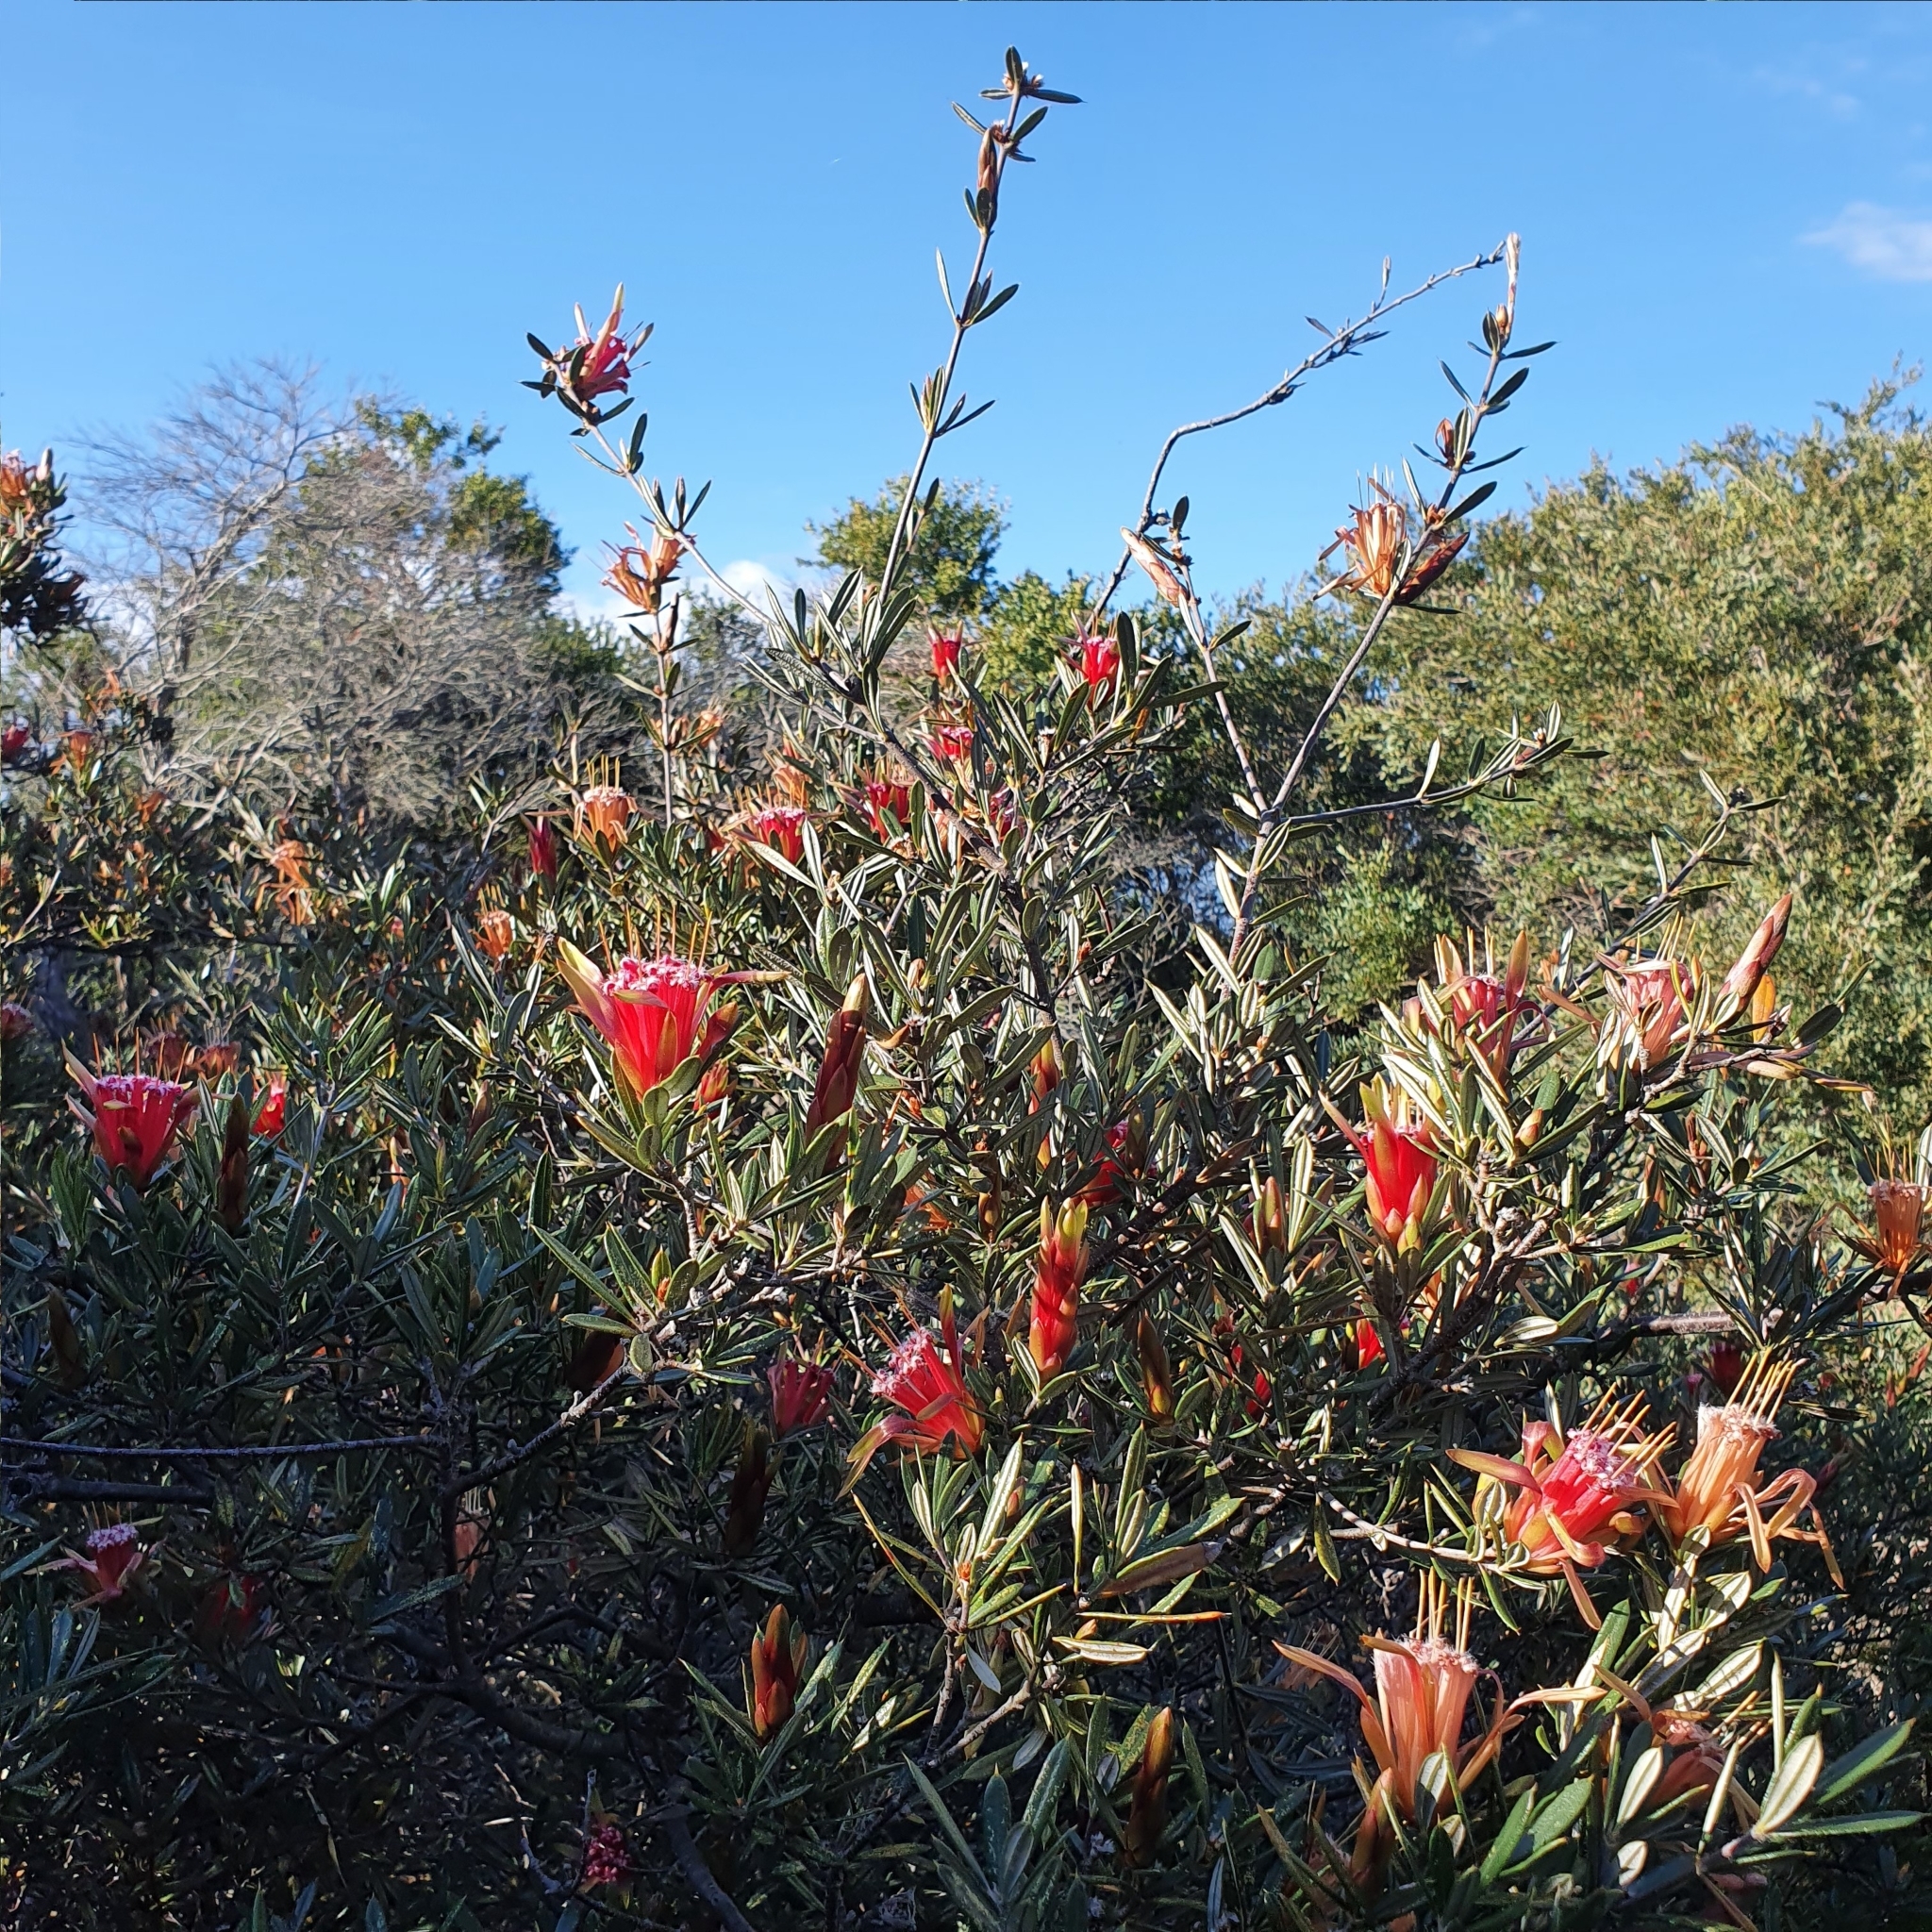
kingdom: Plantae
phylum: Tracheophyta
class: Magnoliopsida
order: Proteales
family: Proteaceae
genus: Lambertia
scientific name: Lambertia formosa
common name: Mountain-devil
